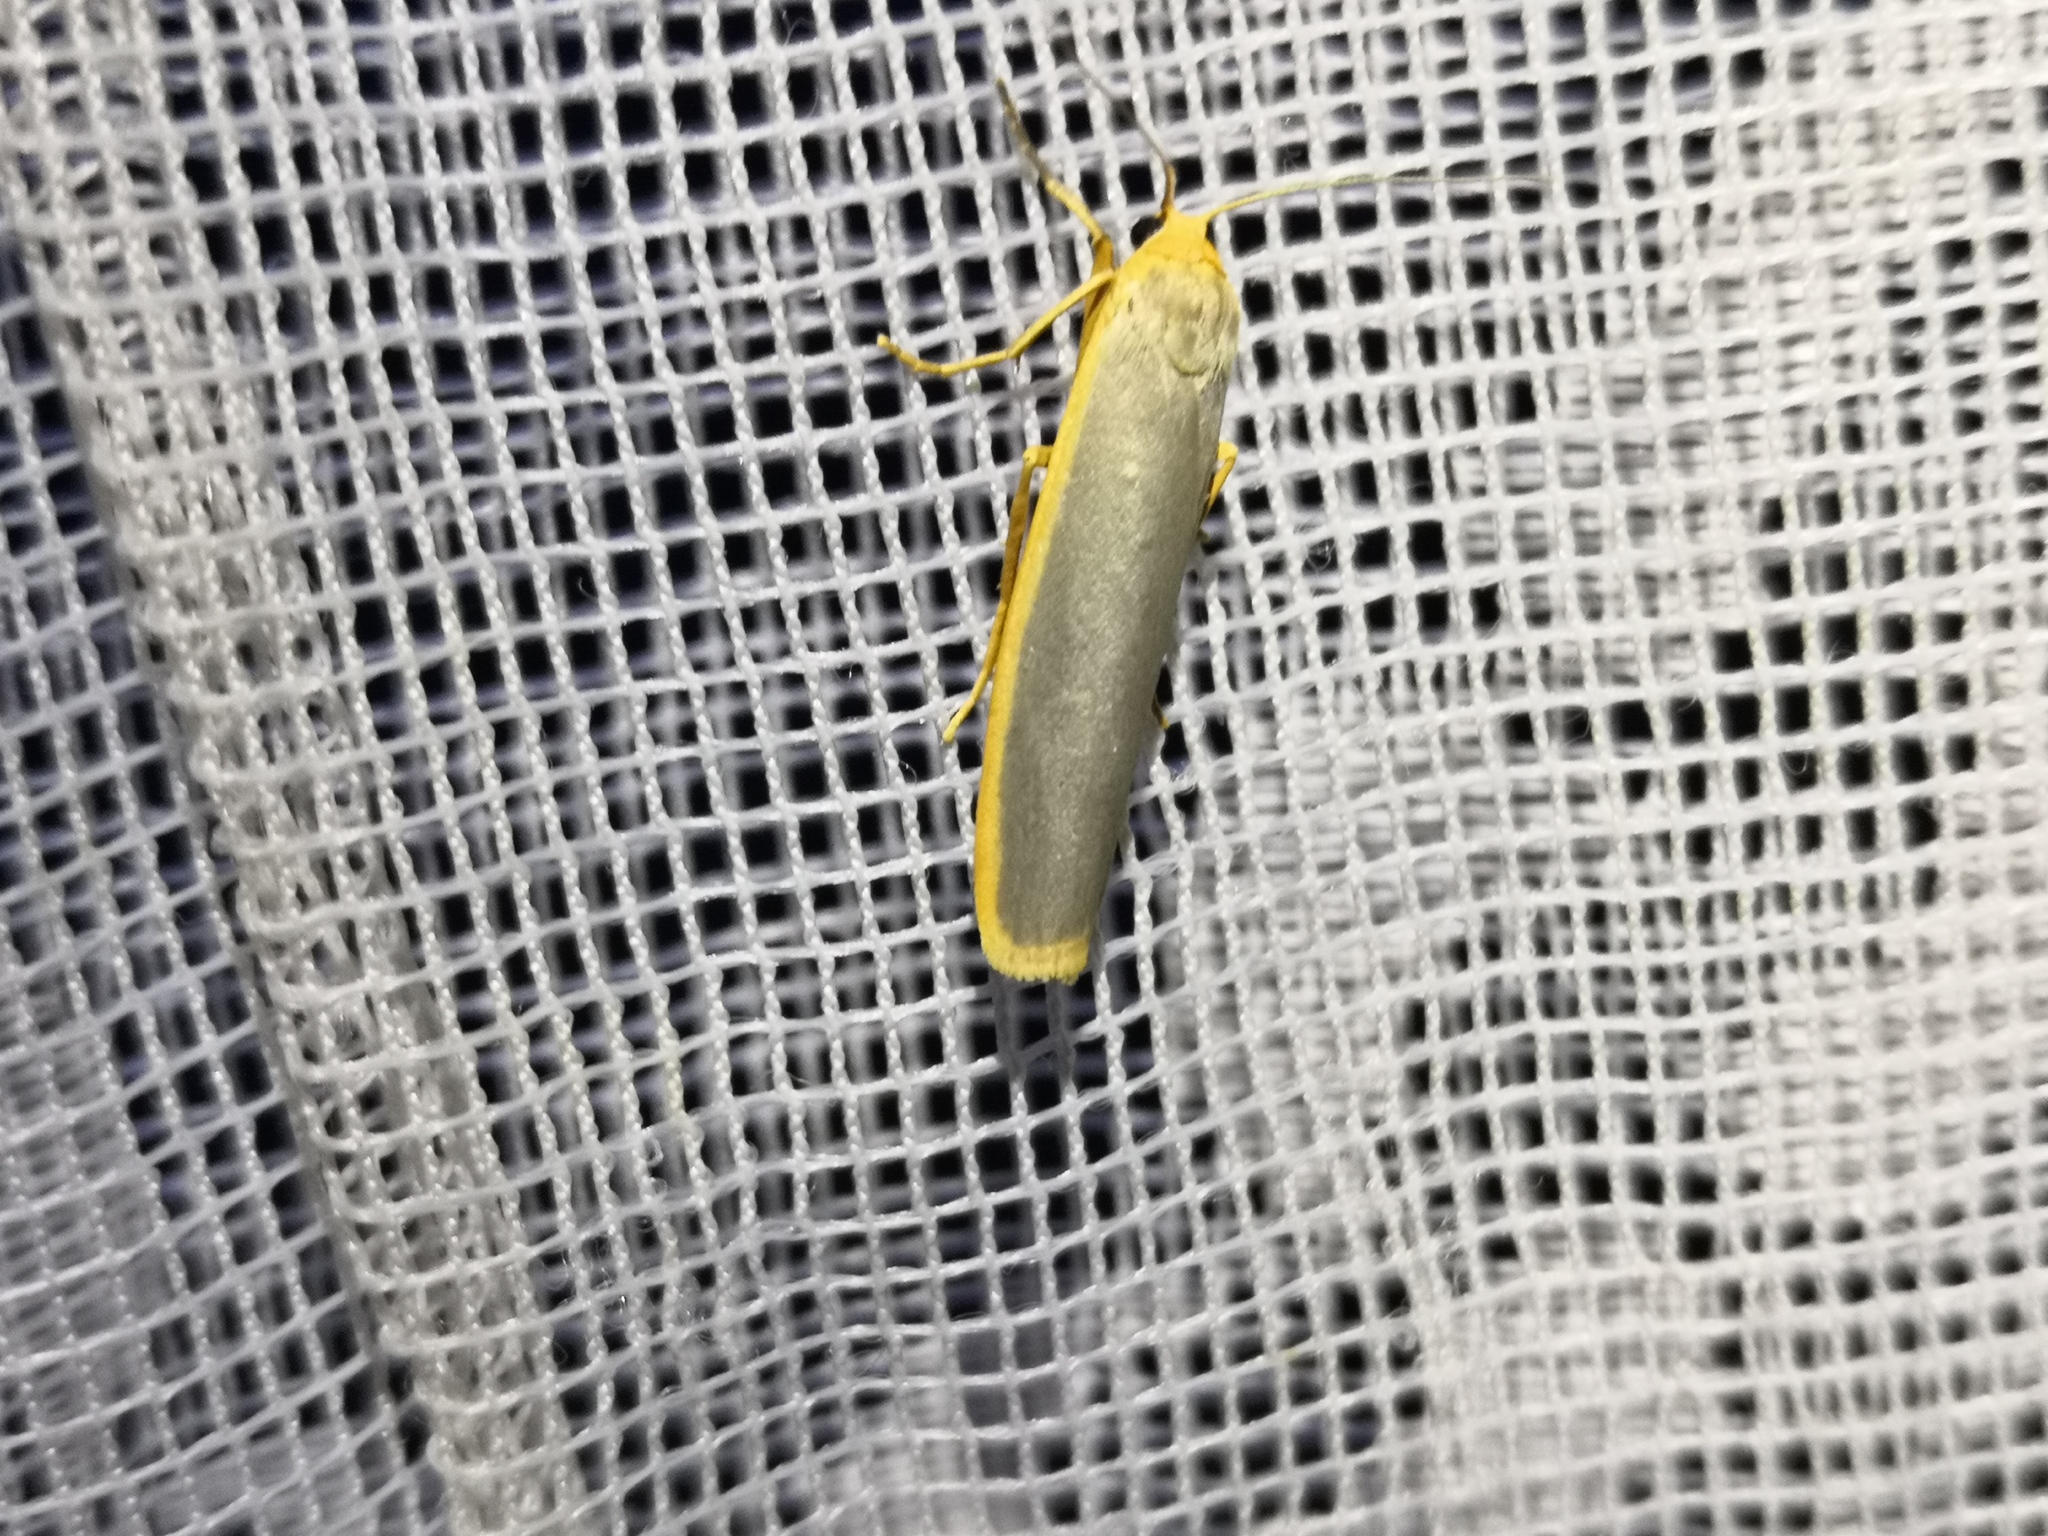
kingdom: Animalia
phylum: Arthropoda
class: Insecta
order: Lepidoptera
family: Erebidae
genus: Manulea
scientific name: Manulea complana
